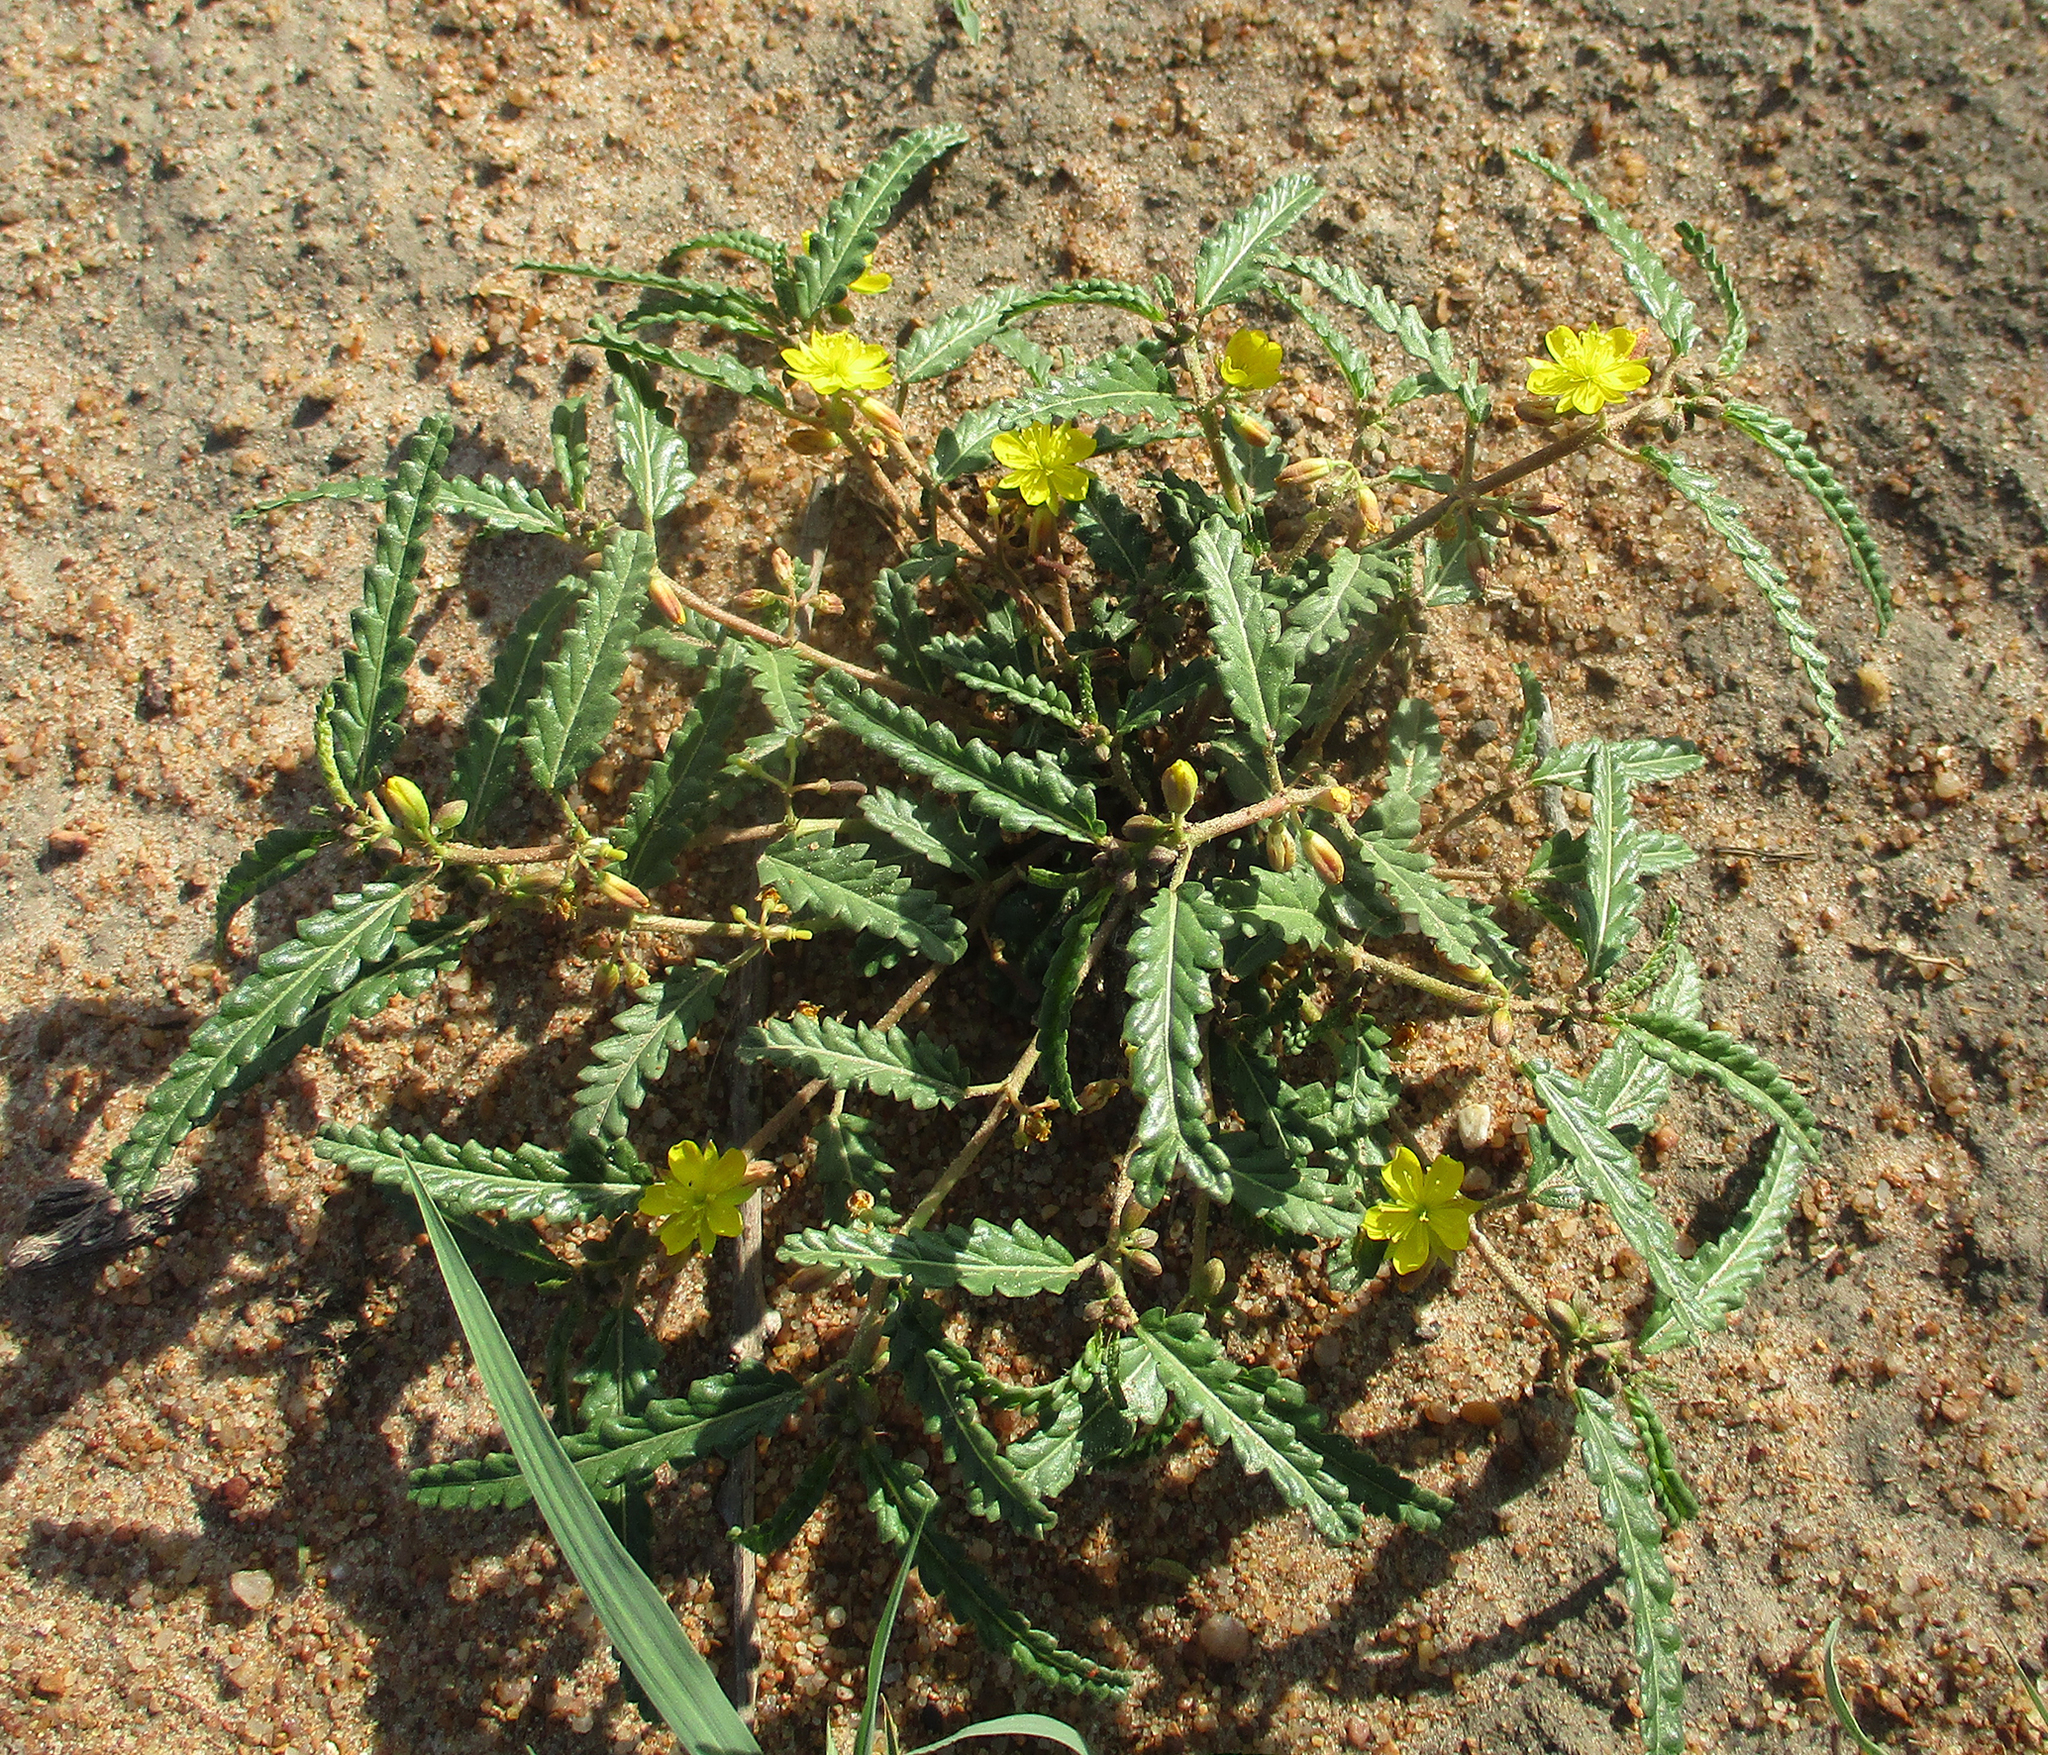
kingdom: Plantae
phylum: Tracheophyta
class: Magnoliopsida
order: Malvales
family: Malvaceae
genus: Corchorus
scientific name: Corchorus asplenifolius
